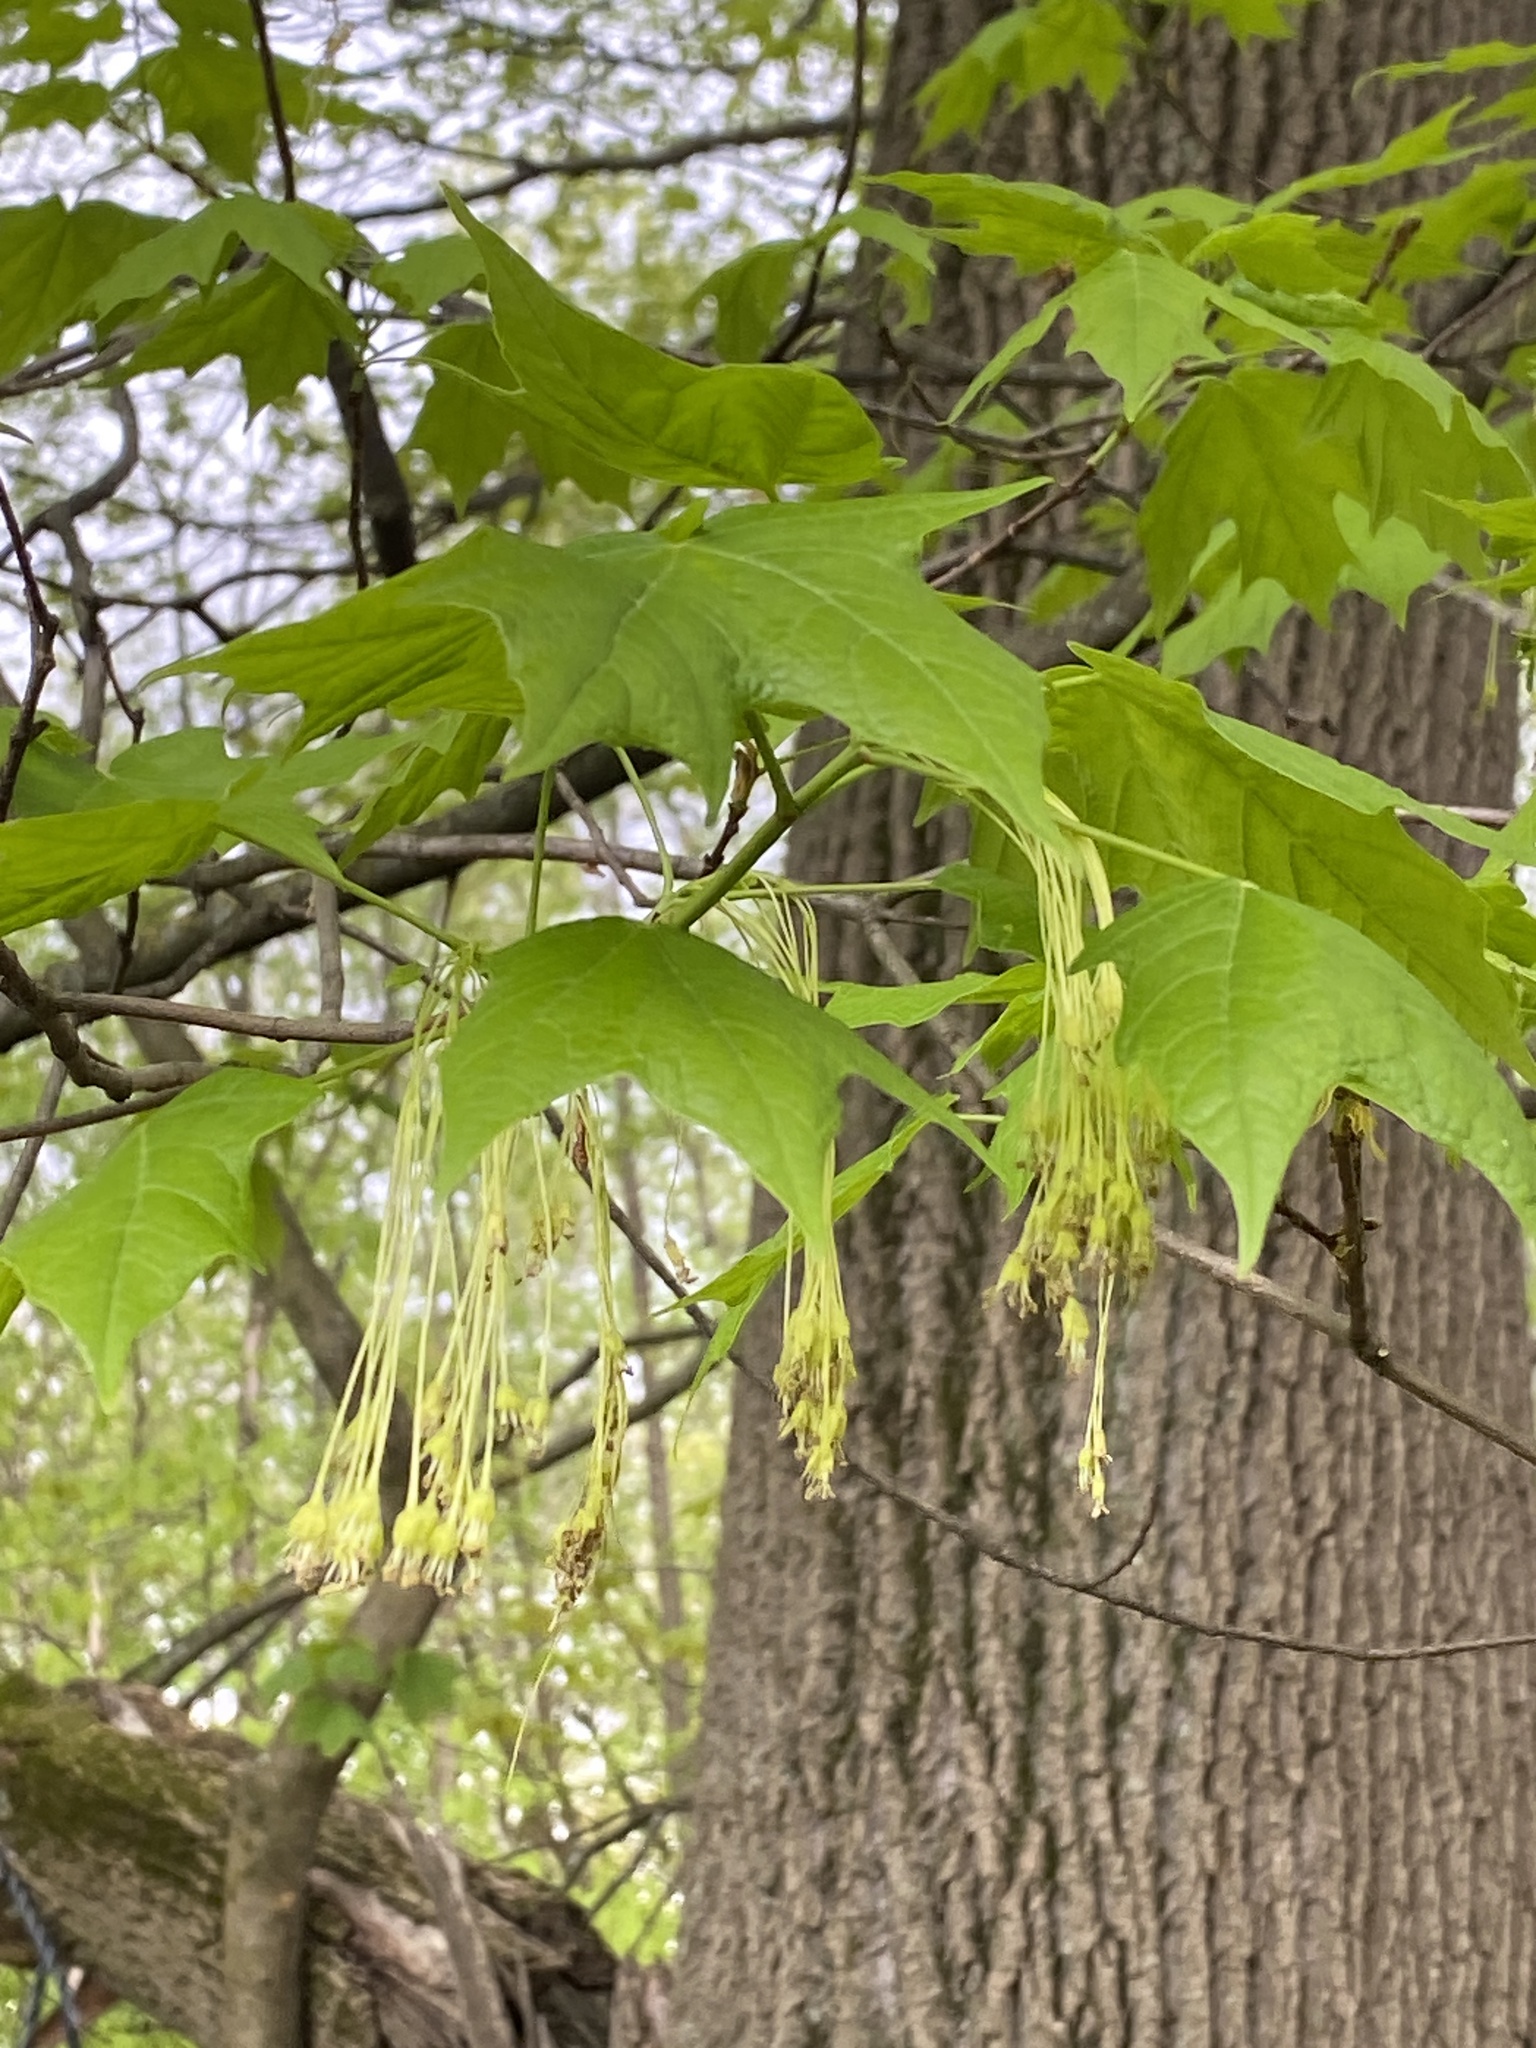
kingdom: Plantae
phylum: Tracheophyta
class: Magnoliopsida
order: Sapindales
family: Sapindaceae
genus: Acer
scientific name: Acer saccharum
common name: Sugar maple
